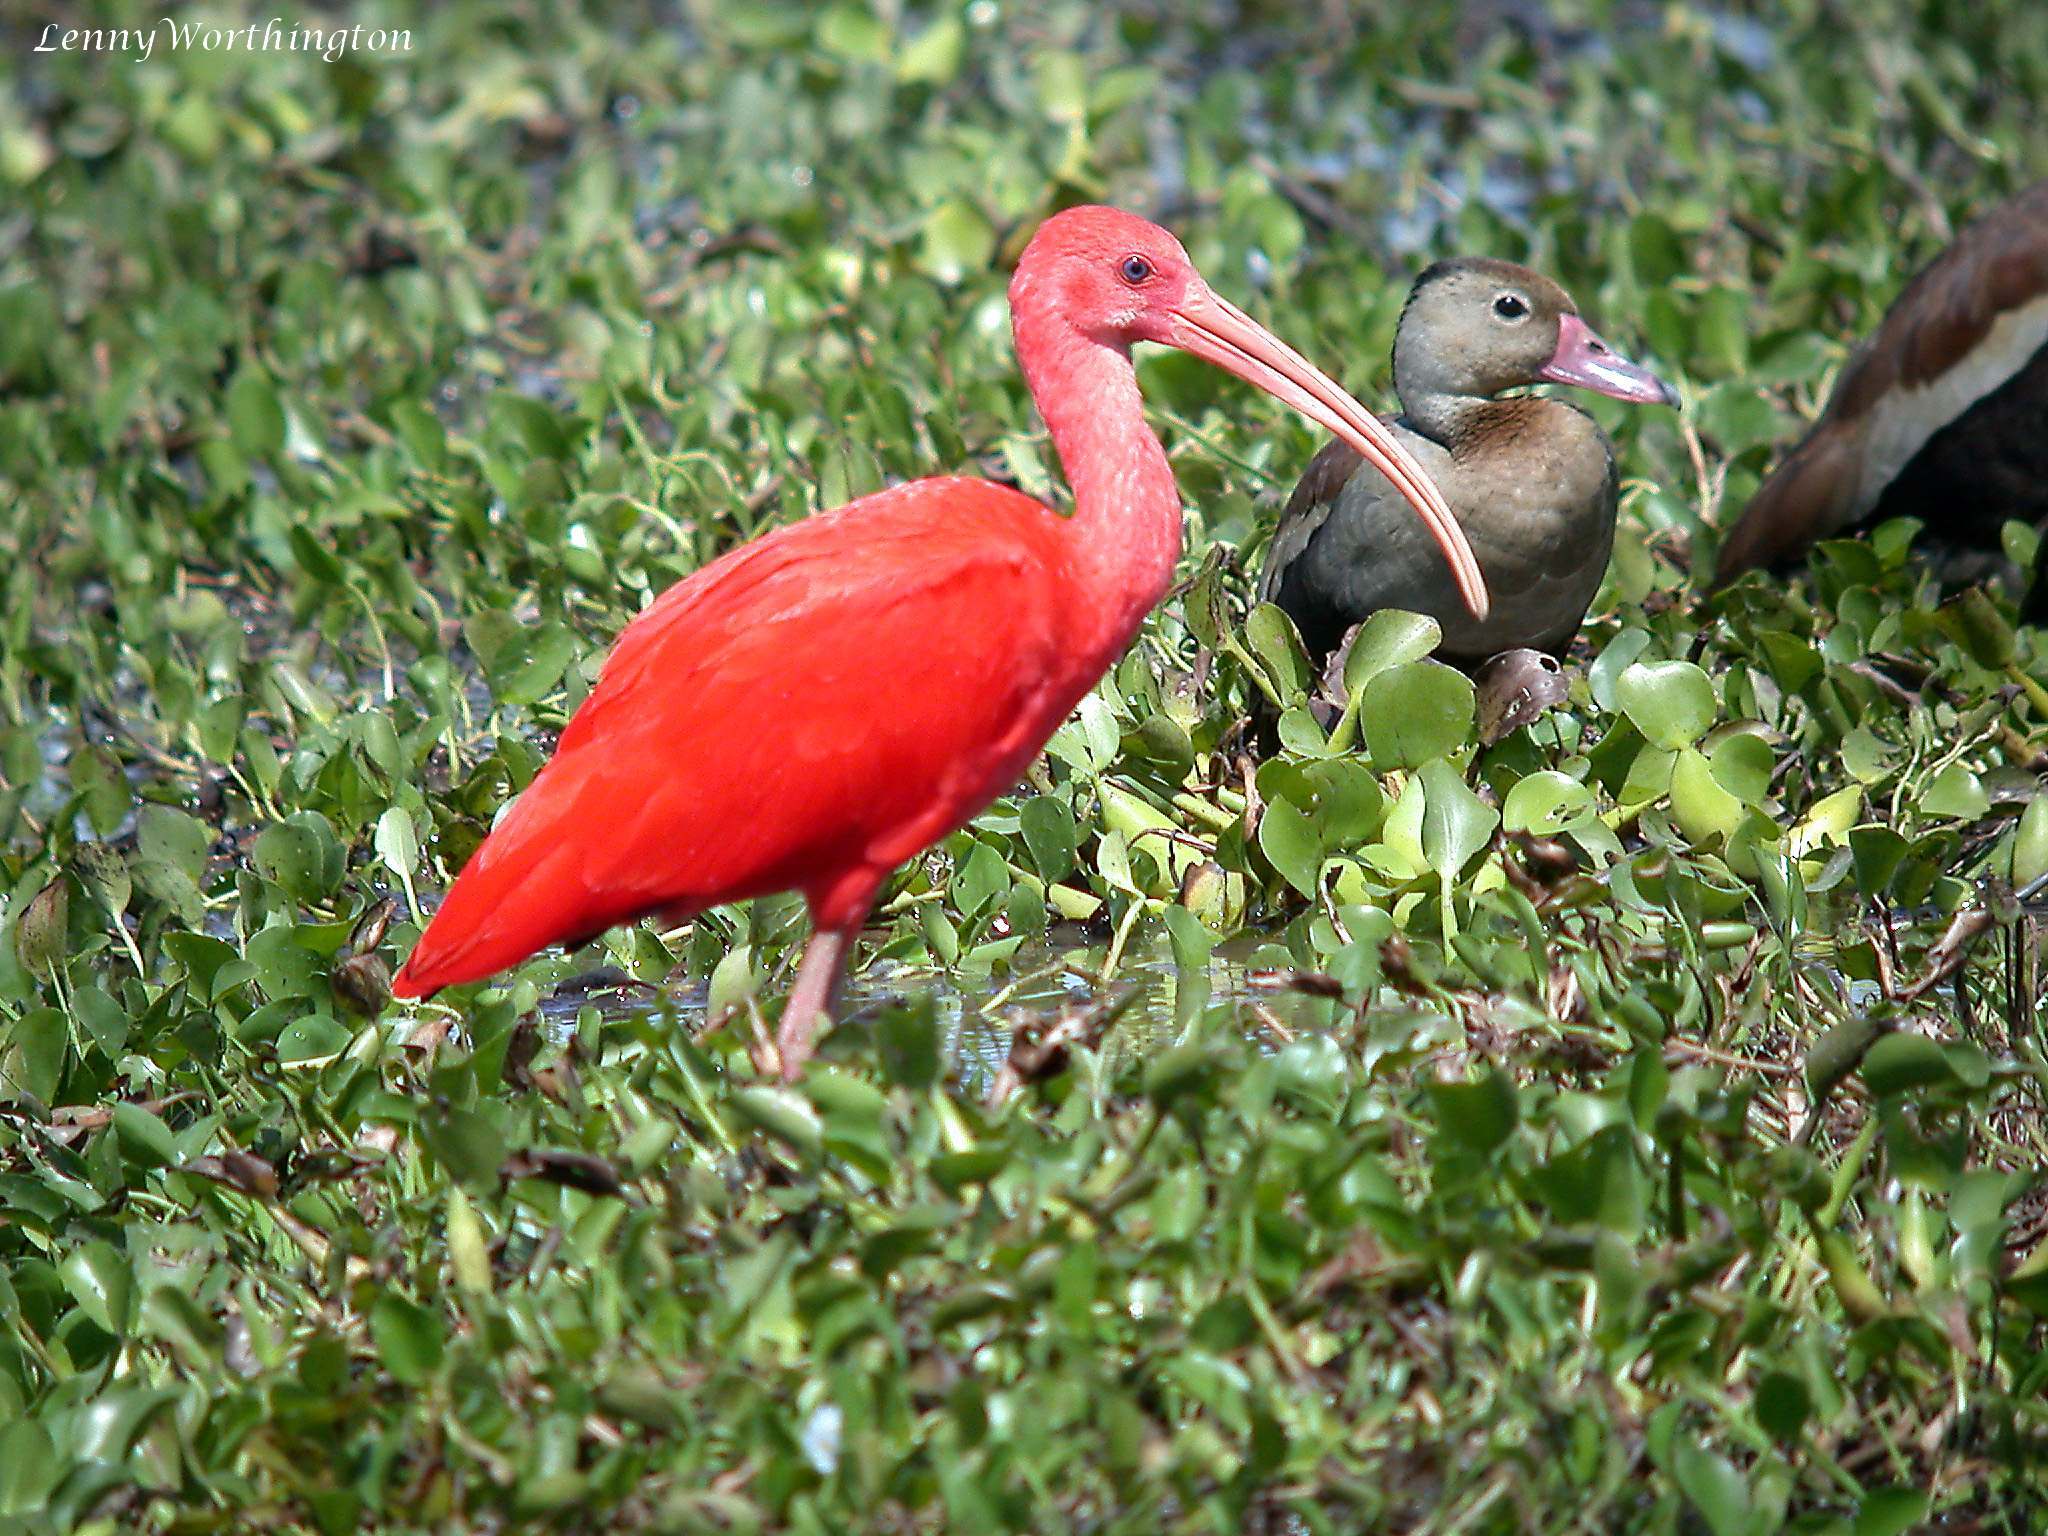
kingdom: Animalia
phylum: Chordata
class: Aves
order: Pelecaniformes
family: Threskiornithidae
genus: Eudocimus
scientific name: Eudocimus ruber
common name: Scarlet ibis
